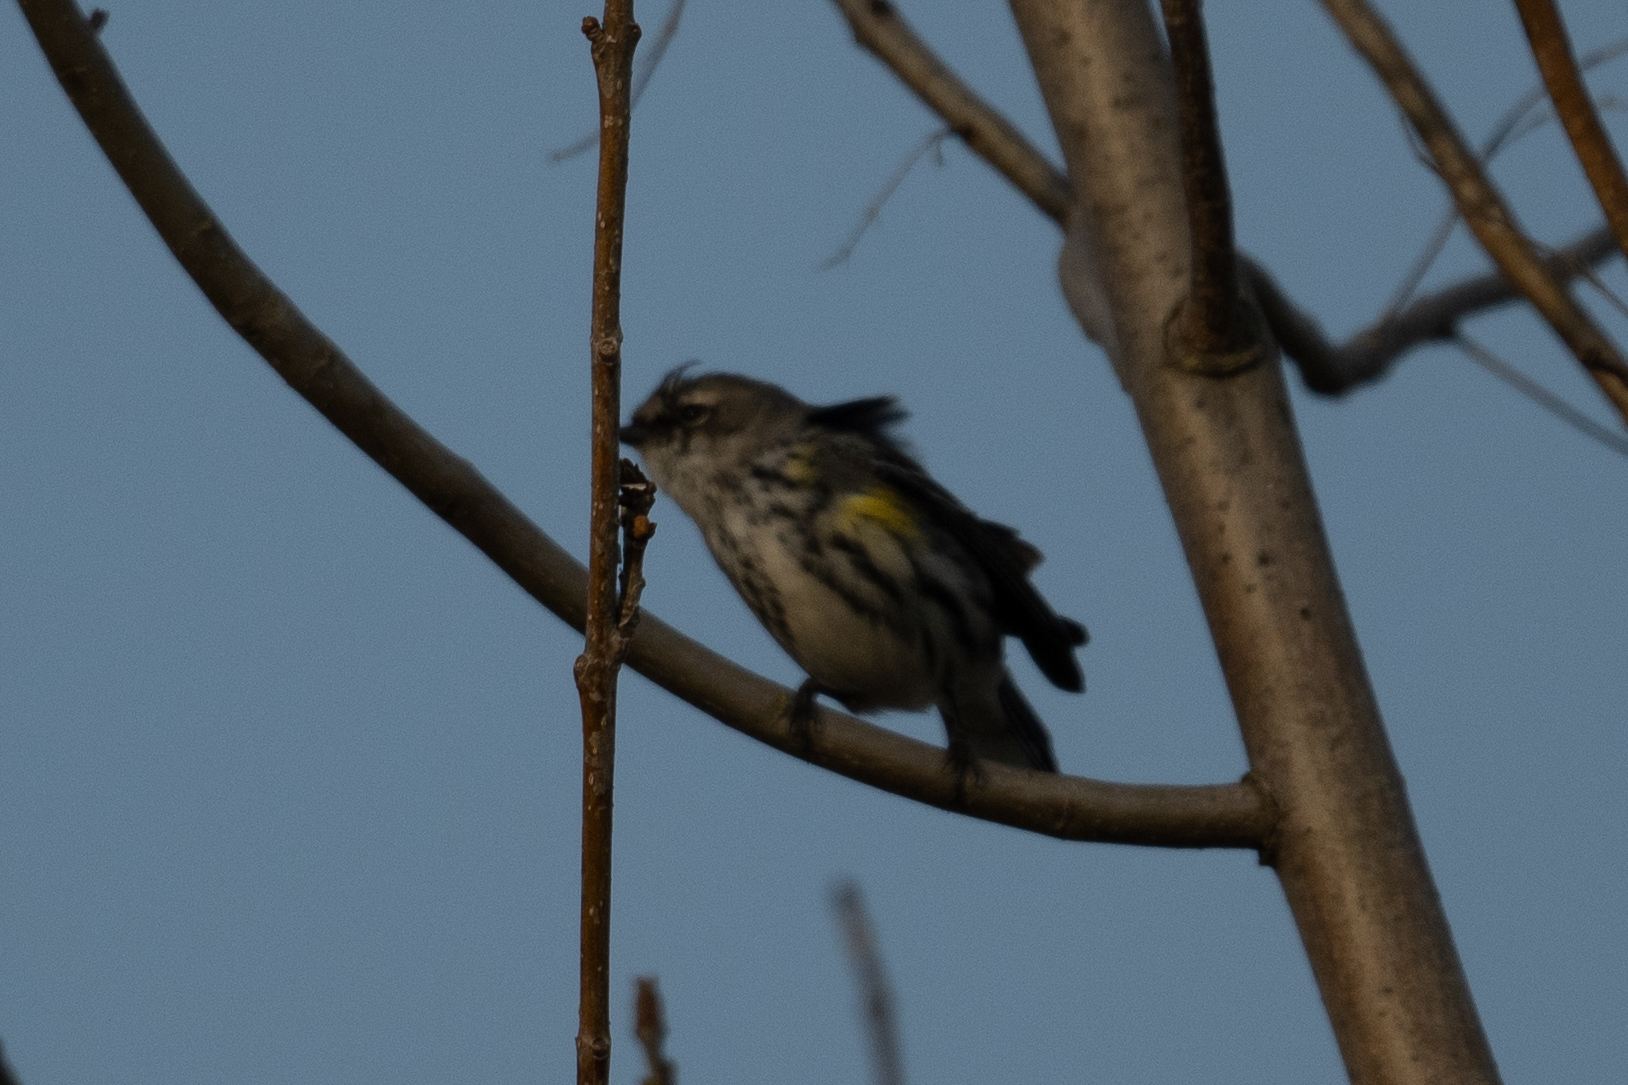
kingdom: Animalia
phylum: Chordata
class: Aves
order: Passeriformes
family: Parulidae
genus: Setophaga
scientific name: Setophaga coronata
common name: Myrtle warbler
